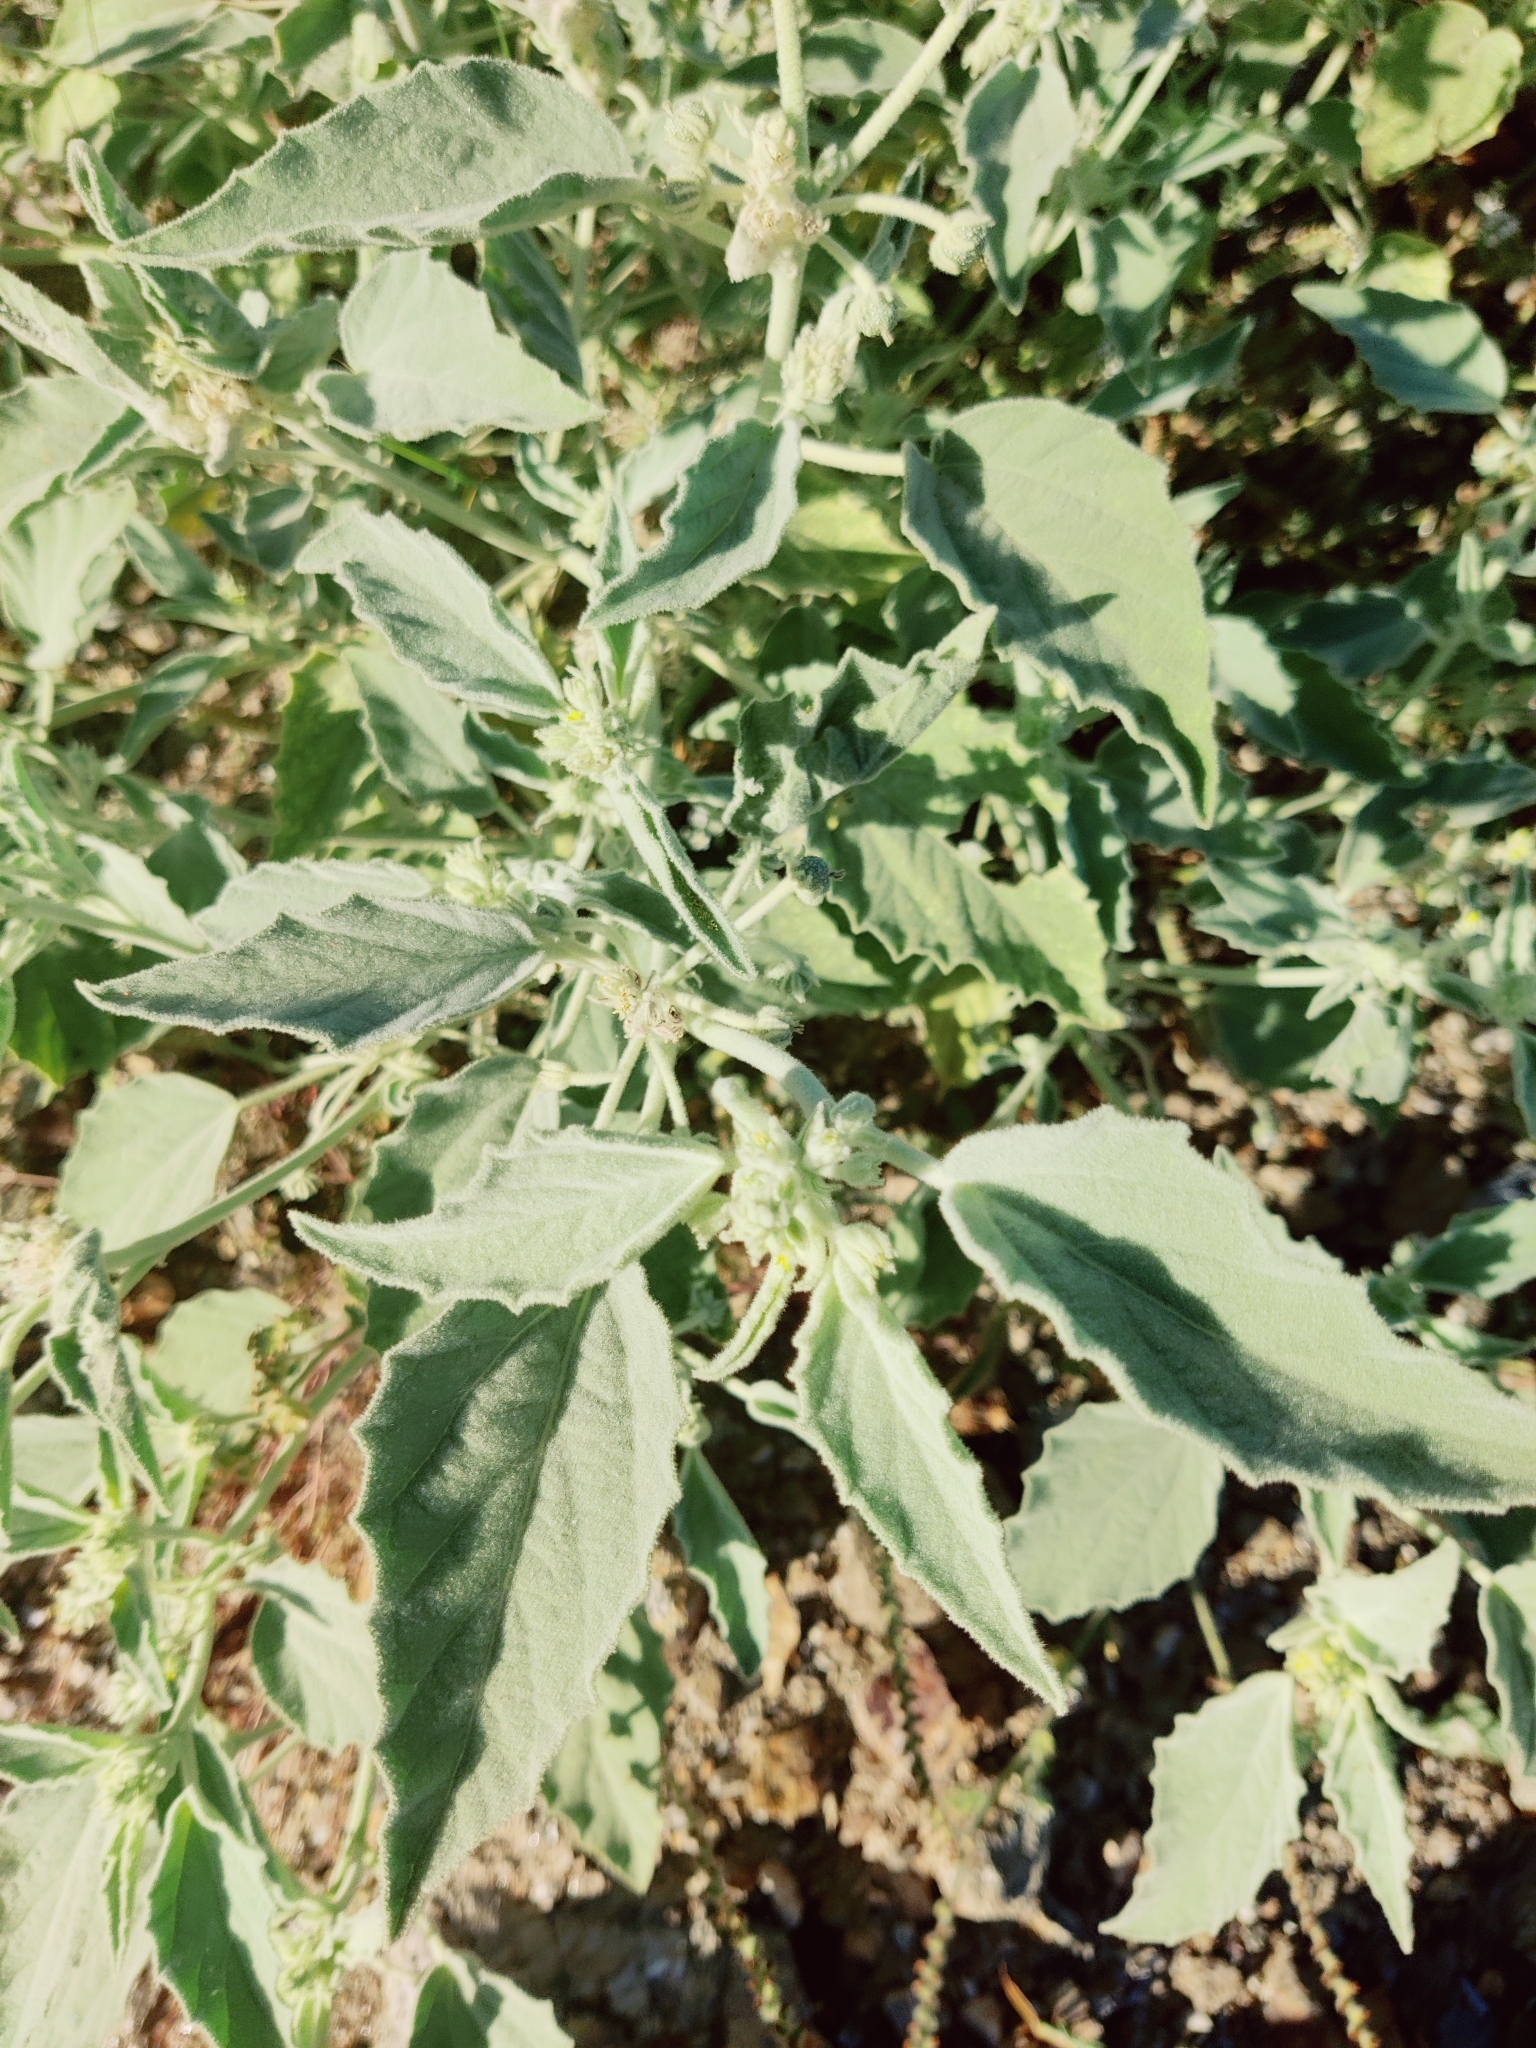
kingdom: Plantae
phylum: Tracheophyta
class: Magnoliopsida
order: Malpighiales
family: Euphorbiaceae
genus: Chrozophora
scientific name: Chrozophora tinctoria
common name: Dyer's litmus
